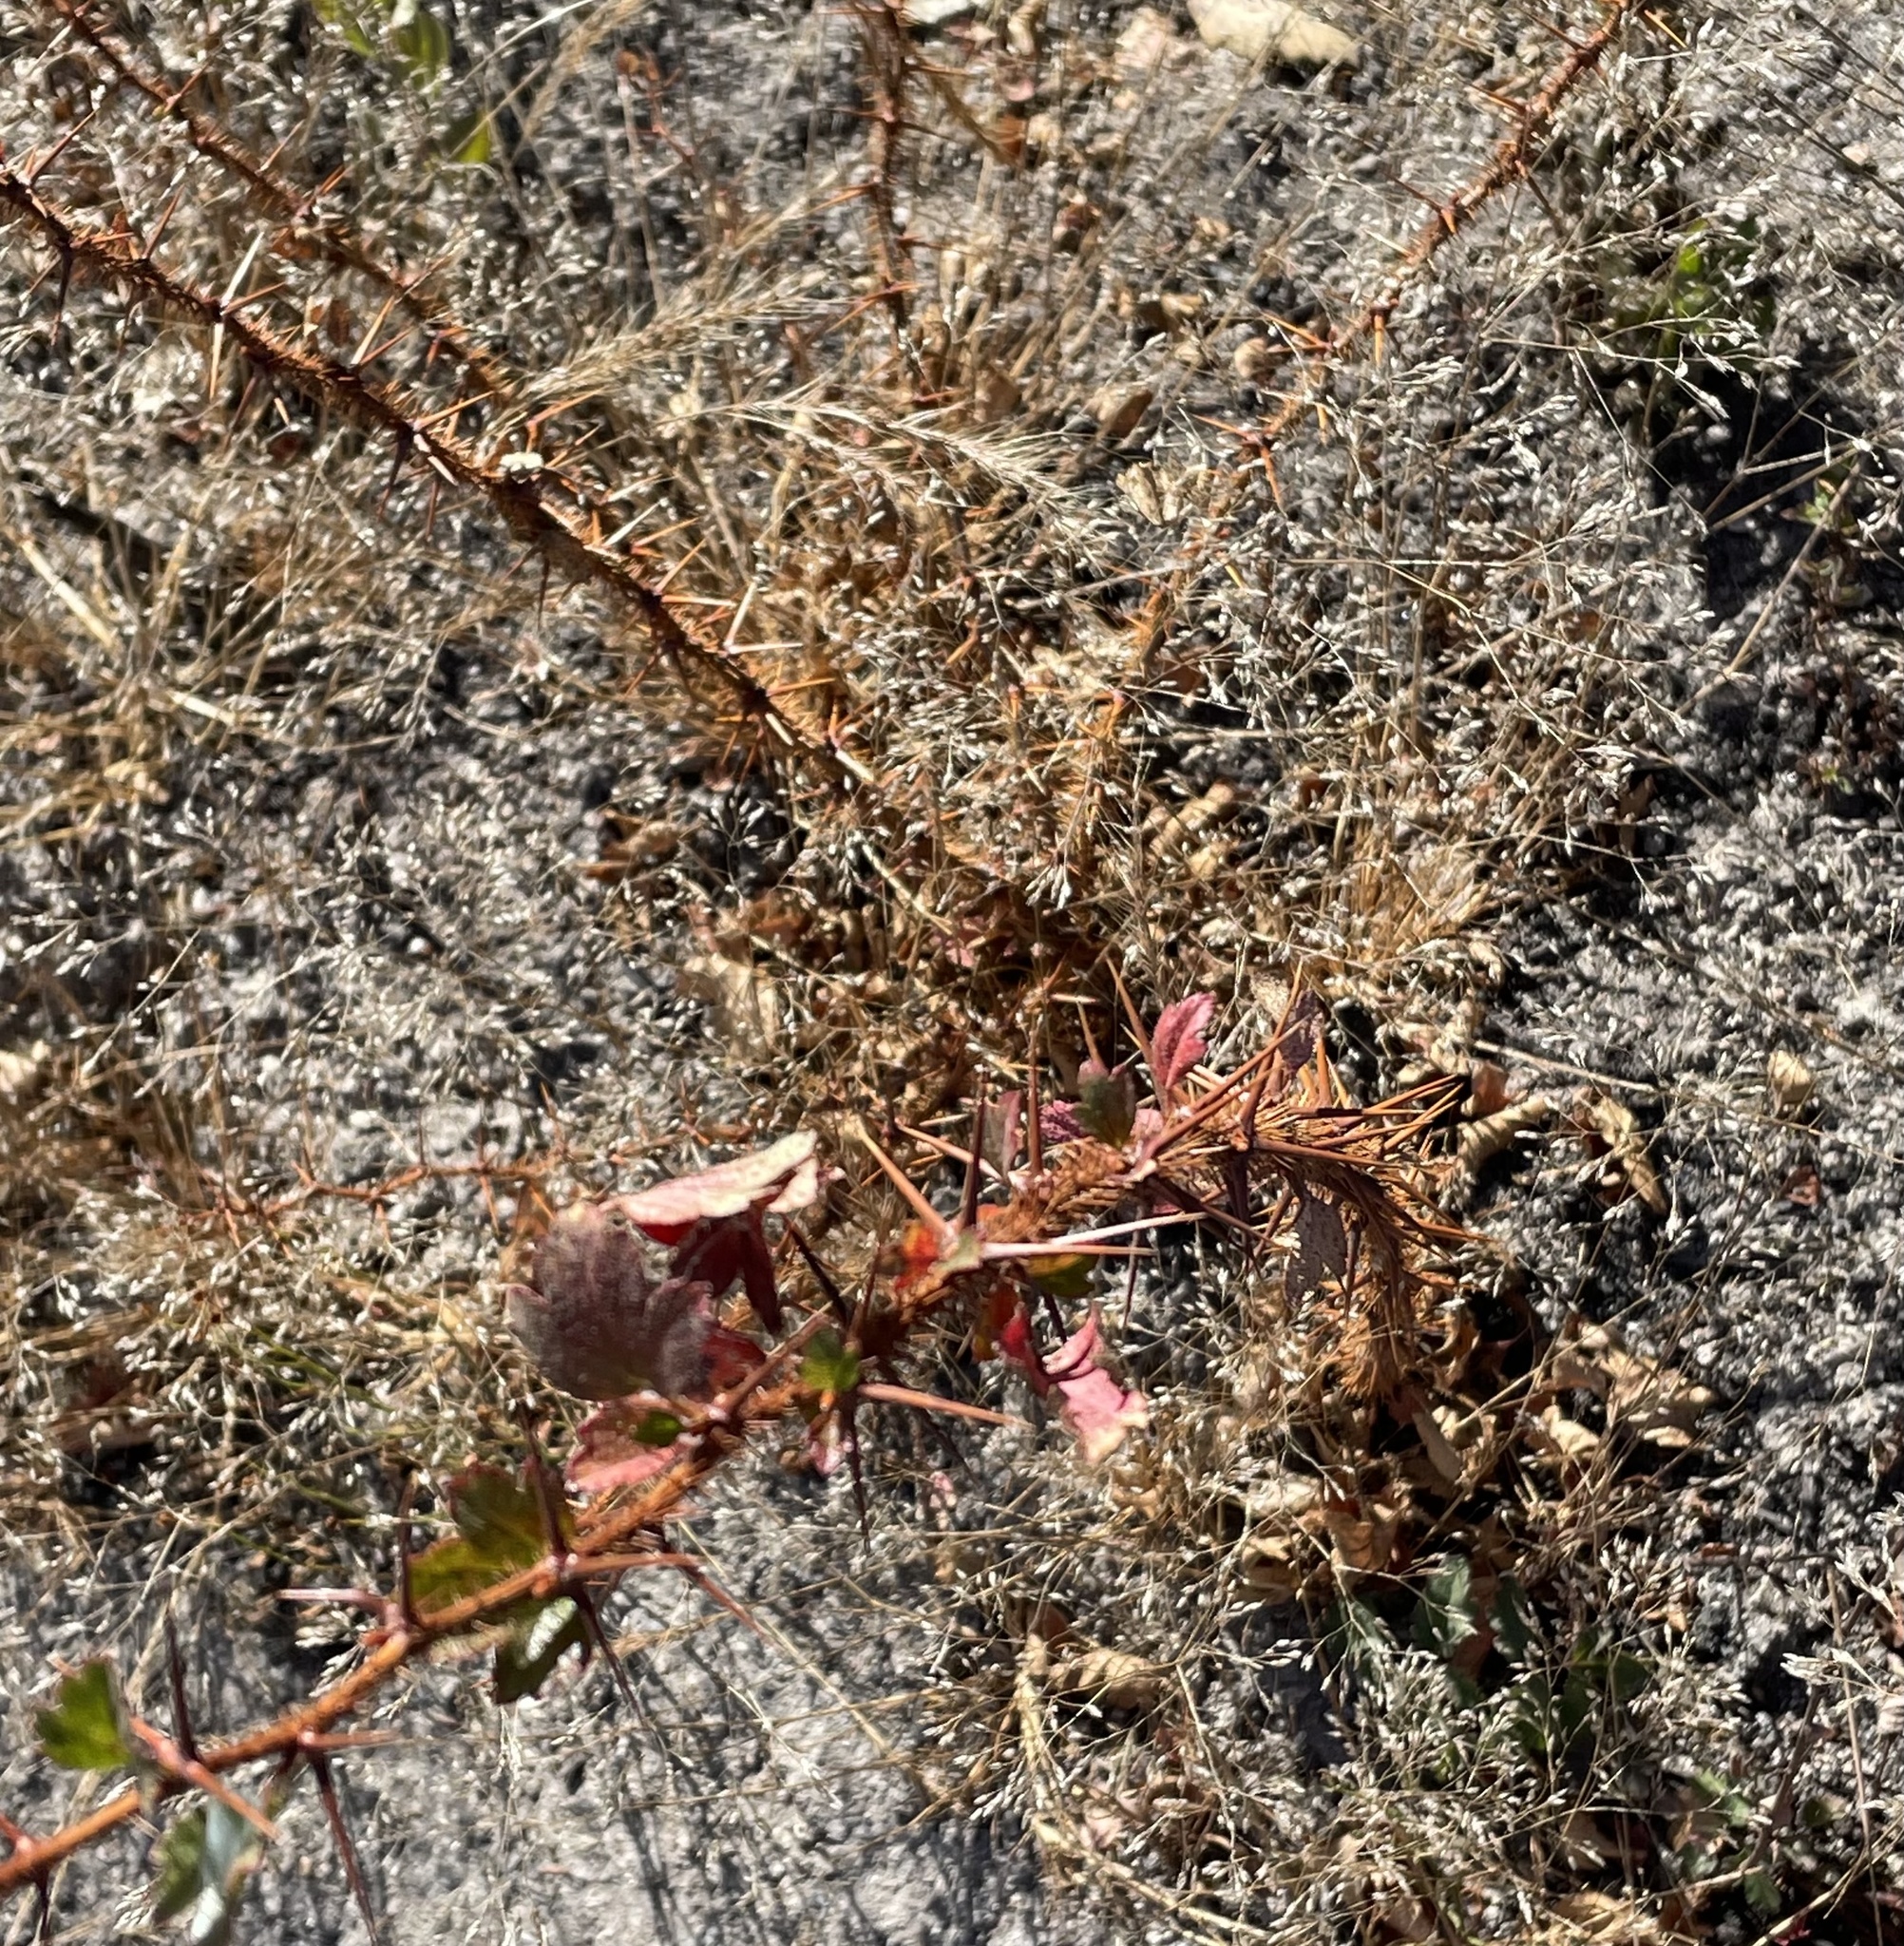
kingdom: Plantae
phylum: Tracheophyta
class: Magnoliopsida
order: Saxifragales
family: Grossulariaceae
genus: Ribes
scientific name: Ribes speciosum
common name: Fuchsia-flower gooseberry
